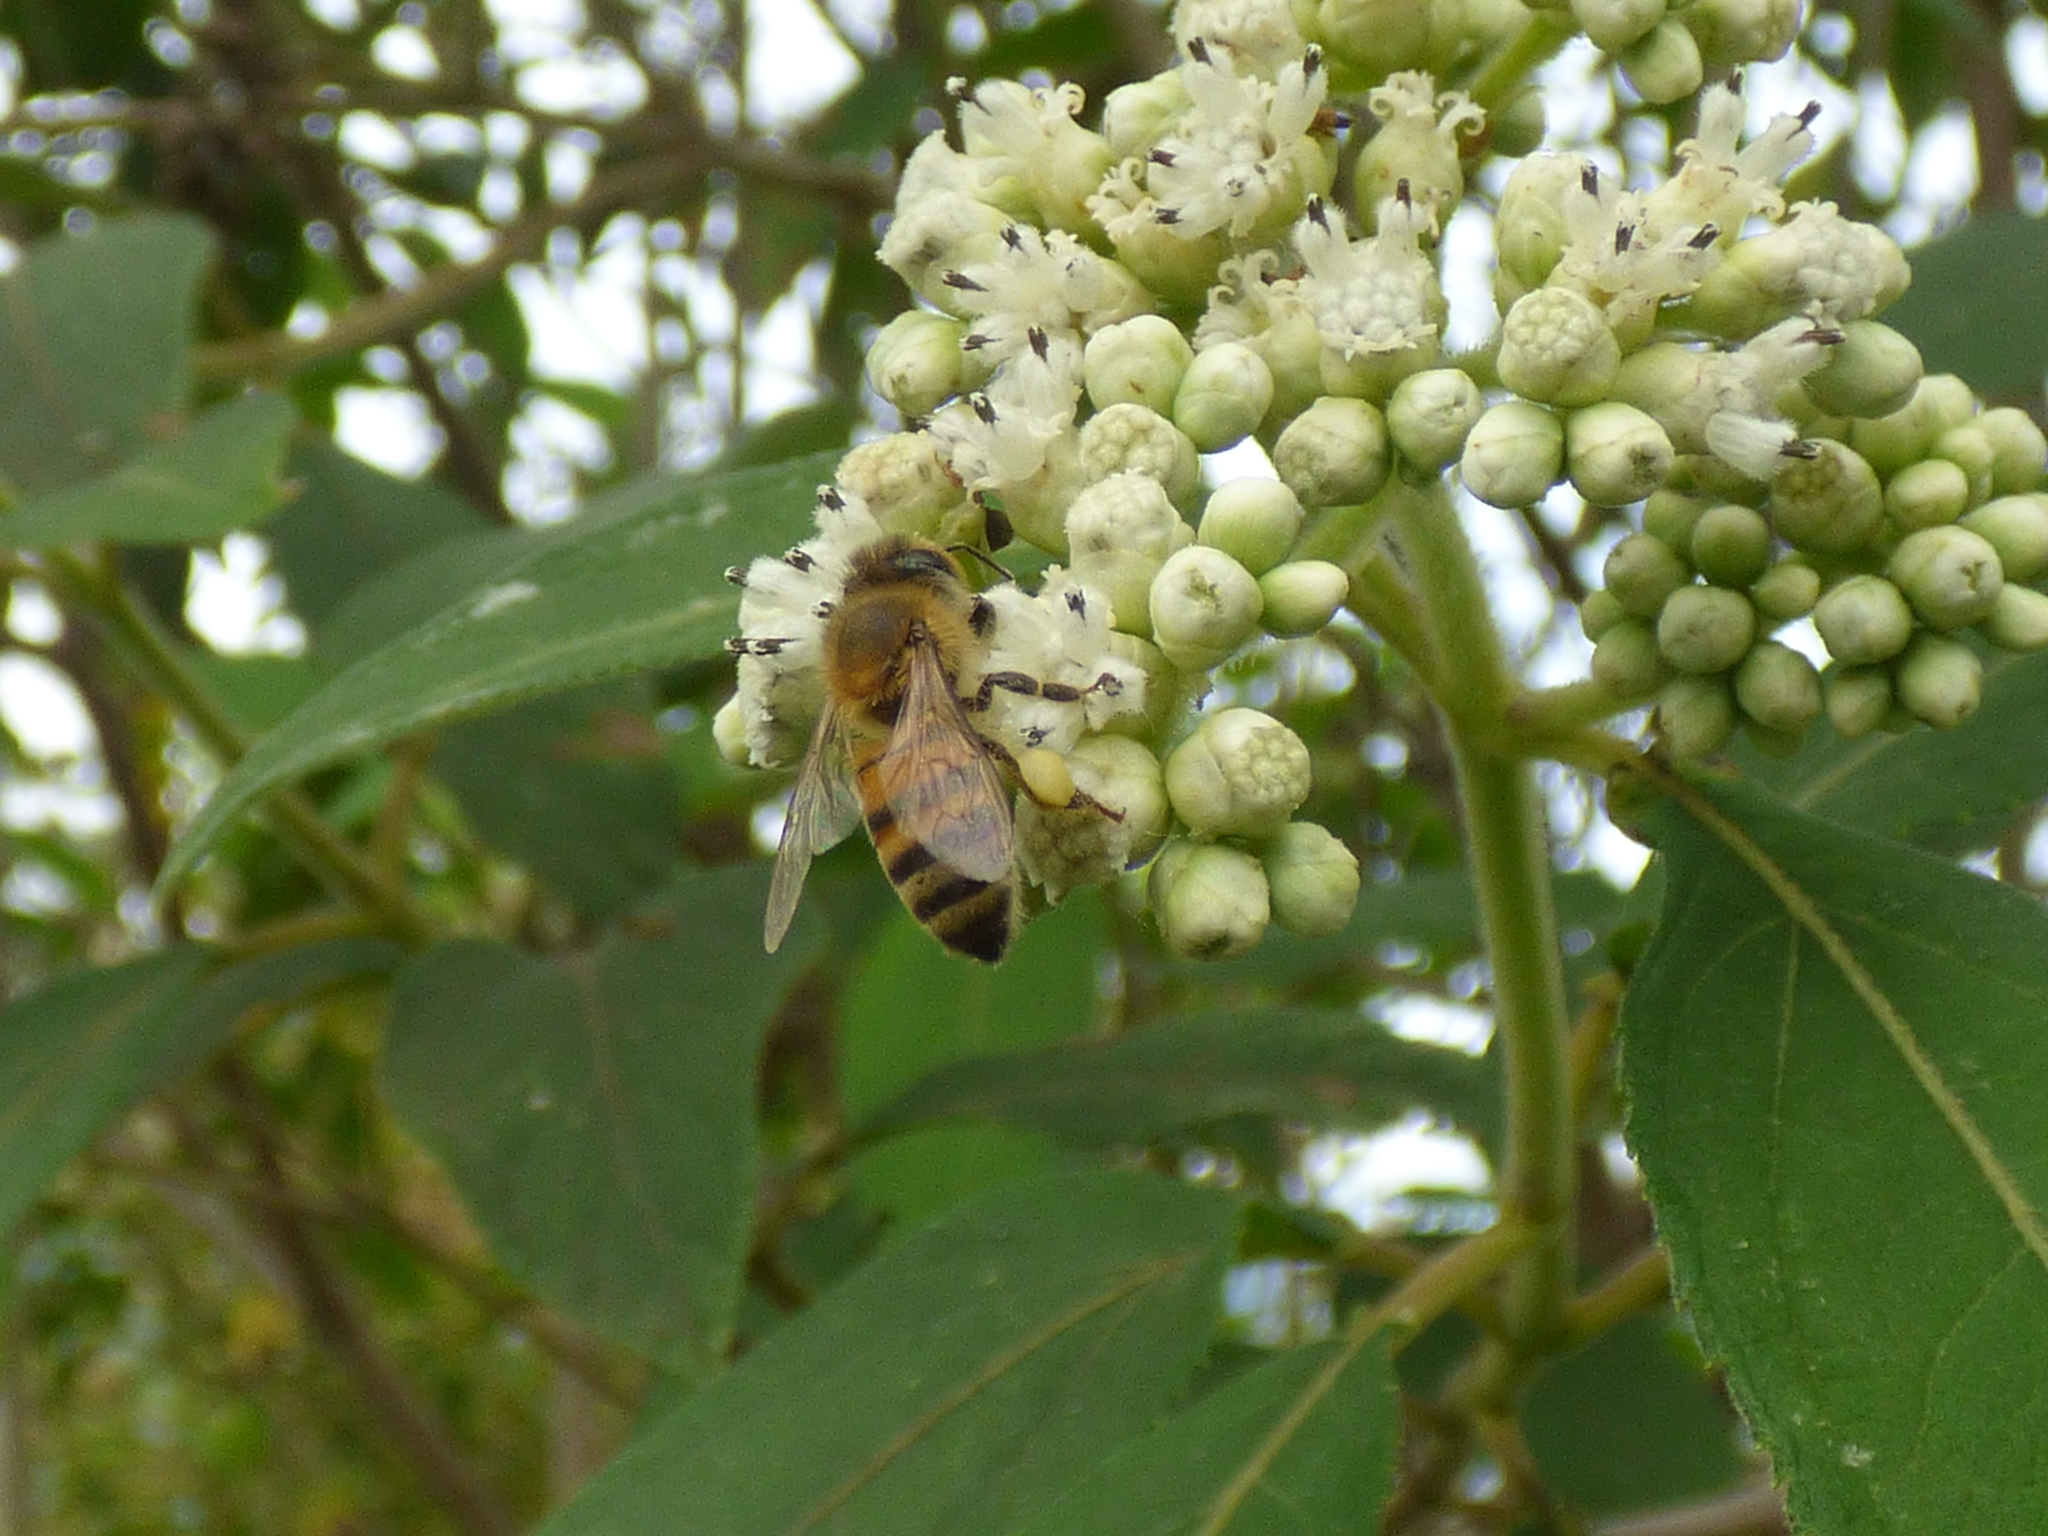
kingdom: Animalia
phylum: Arthropoda
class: Insecta
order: Hymenoptera
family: Apidae
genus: Apis
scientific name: Apis mellifera
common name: Honey bee
